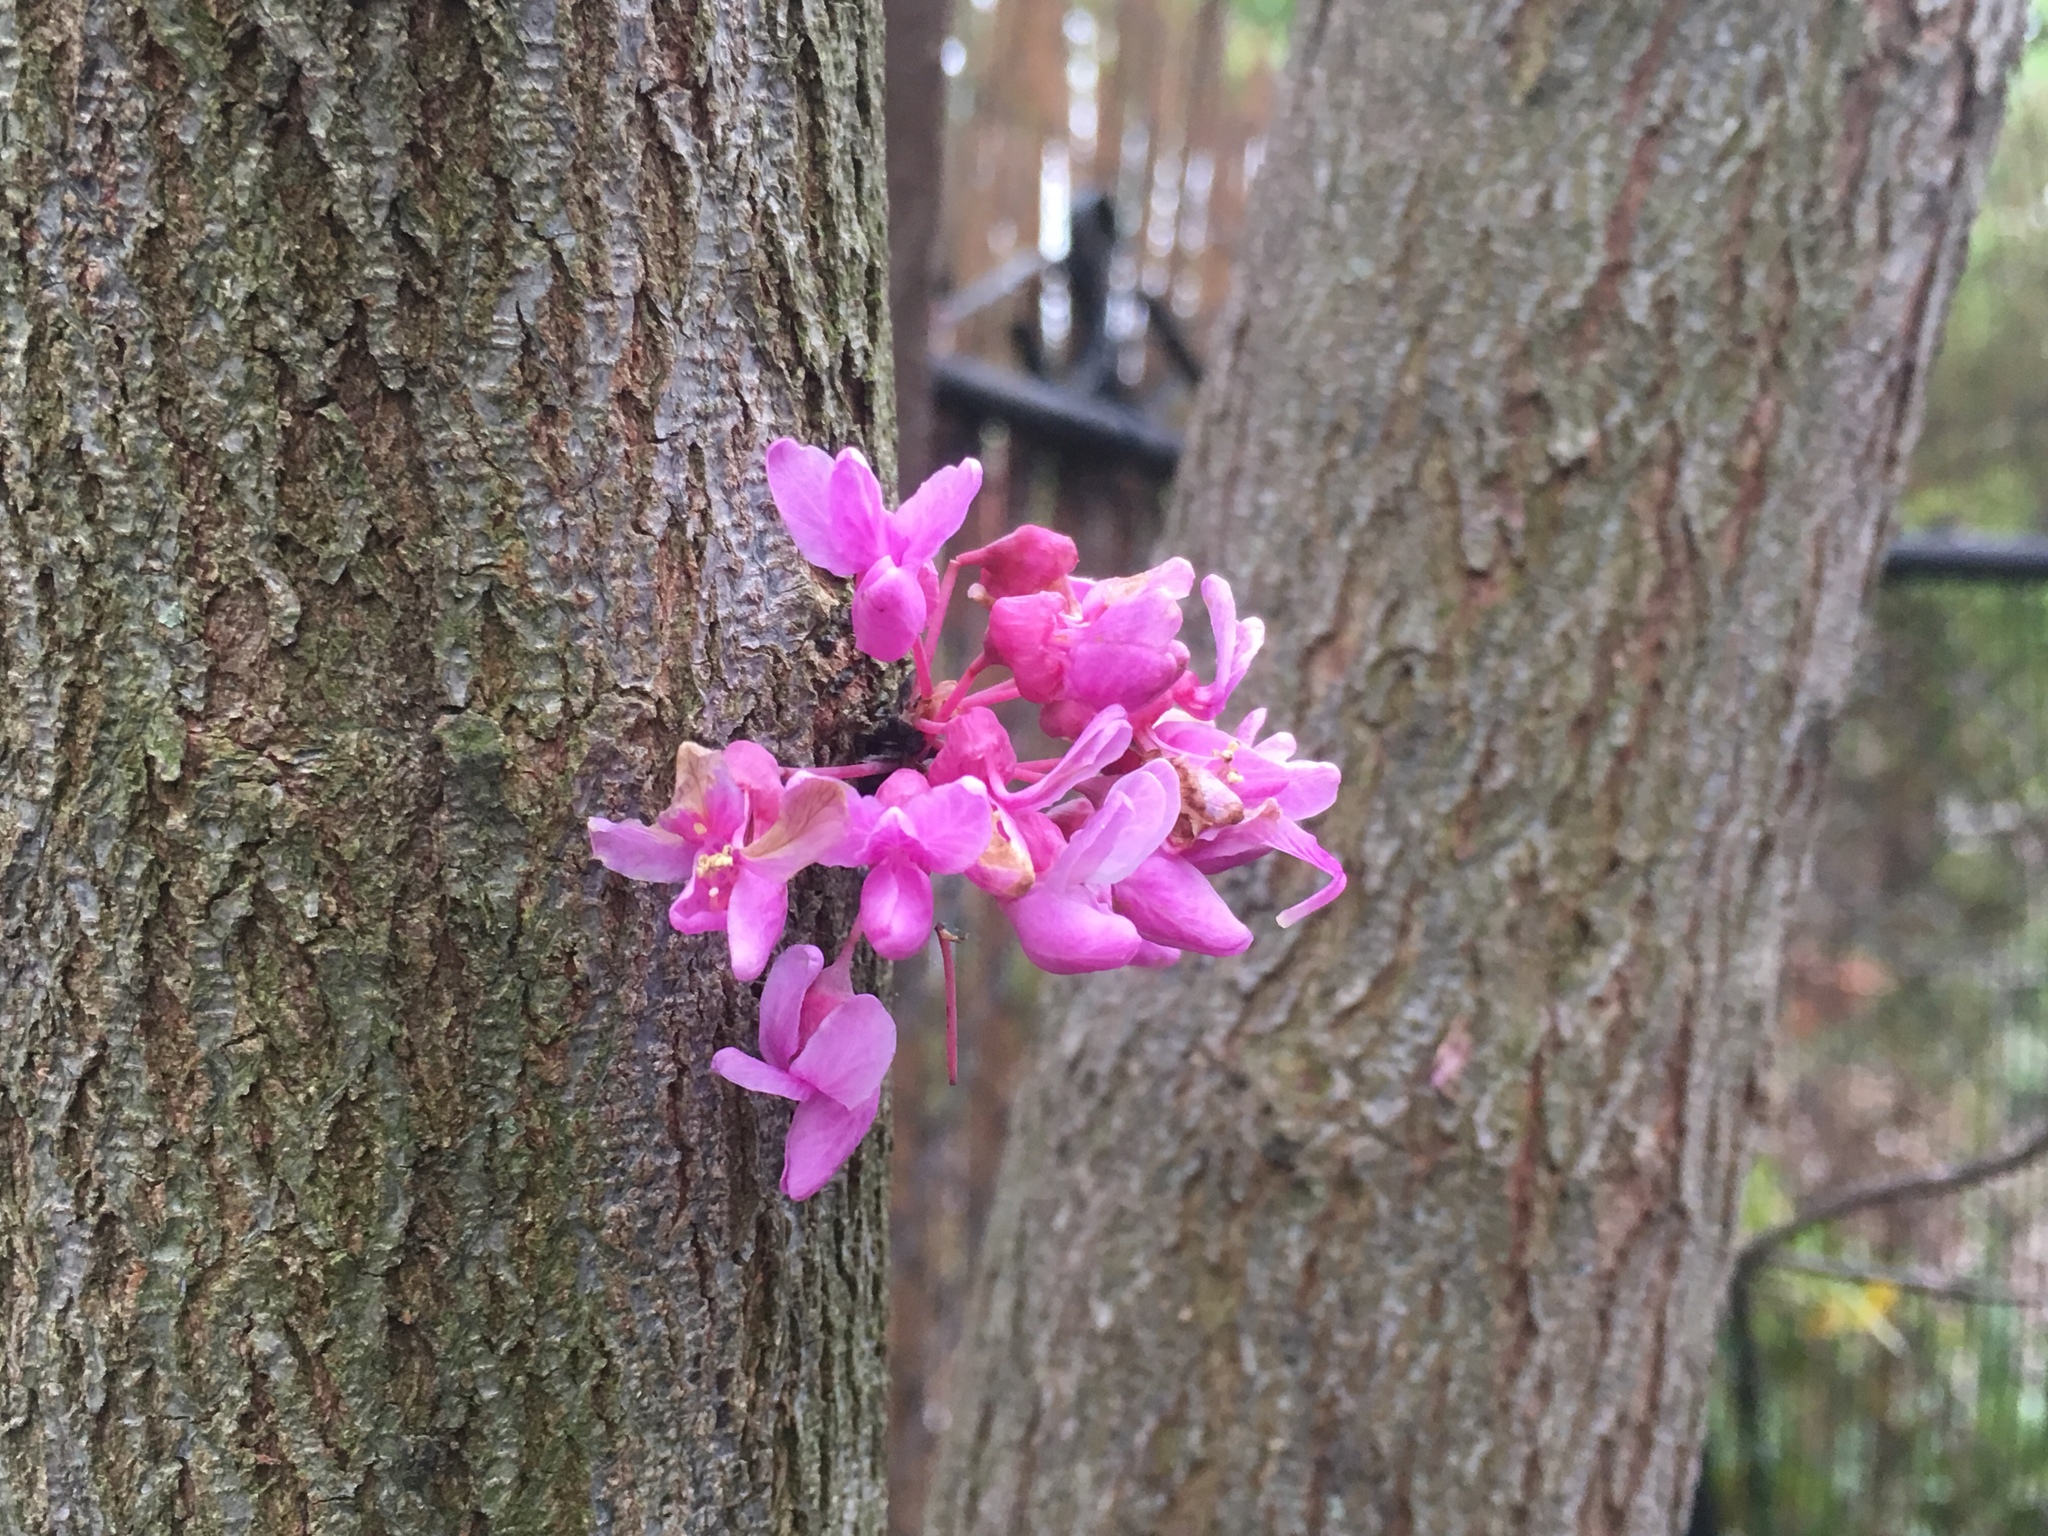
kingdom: Plantae
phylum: Tracheophyta
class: Magnoliopsida
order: Fabales
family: Fabaceae
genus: Cercis
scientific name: Cercis canadensis
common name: Eastern redbud
